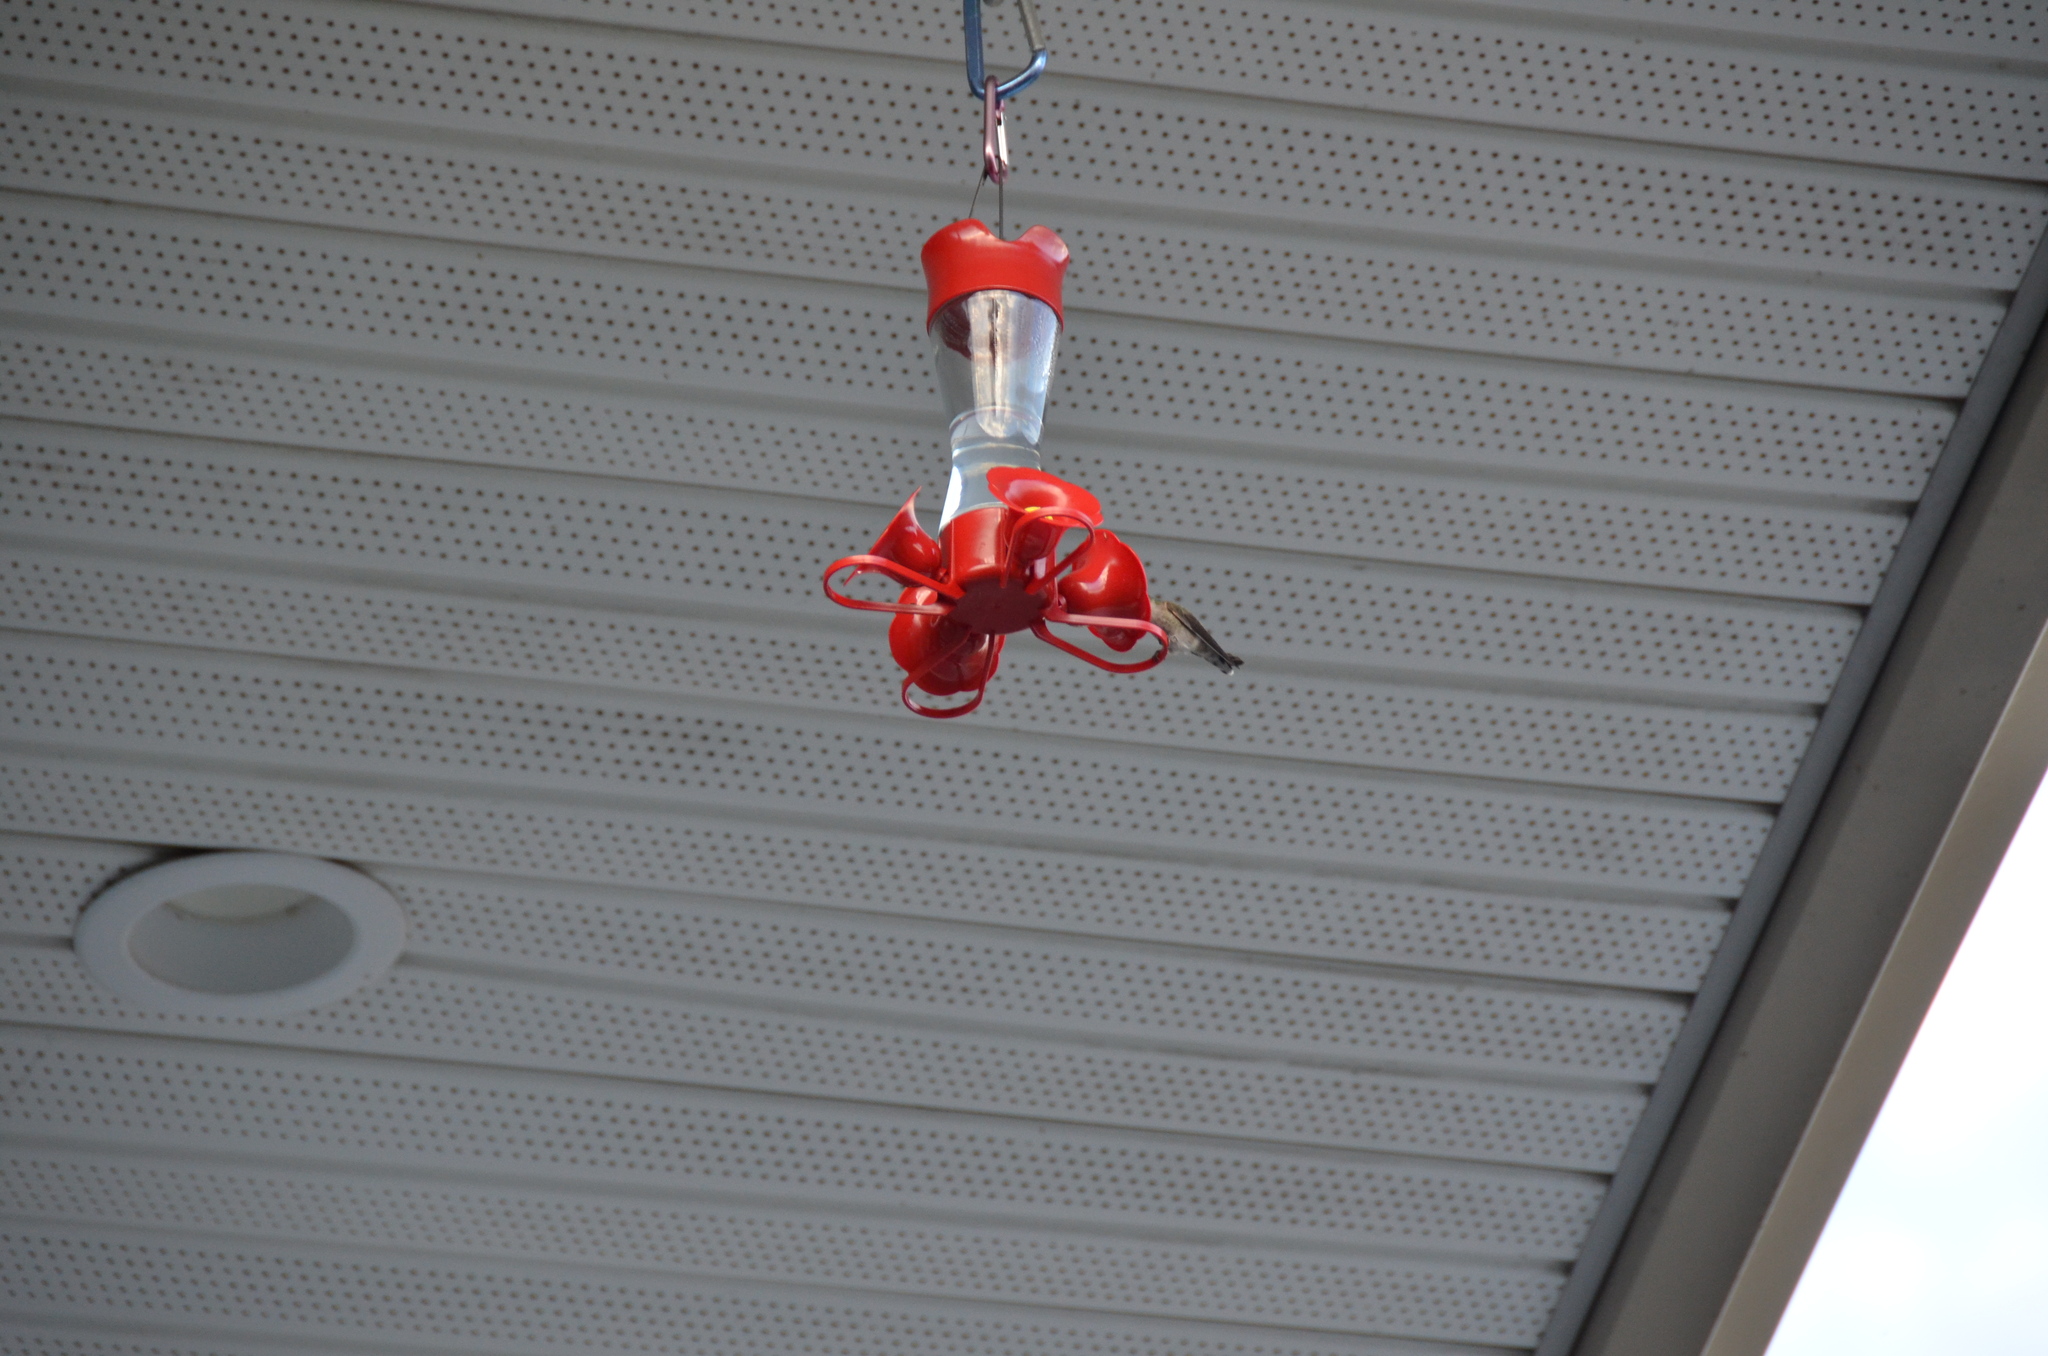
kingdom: Animalia
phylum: Chordata
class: Aves
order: Apodiformes
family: Trochilidae
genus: Calypte
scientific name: Calypte anna
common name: Anna's hummingbird
